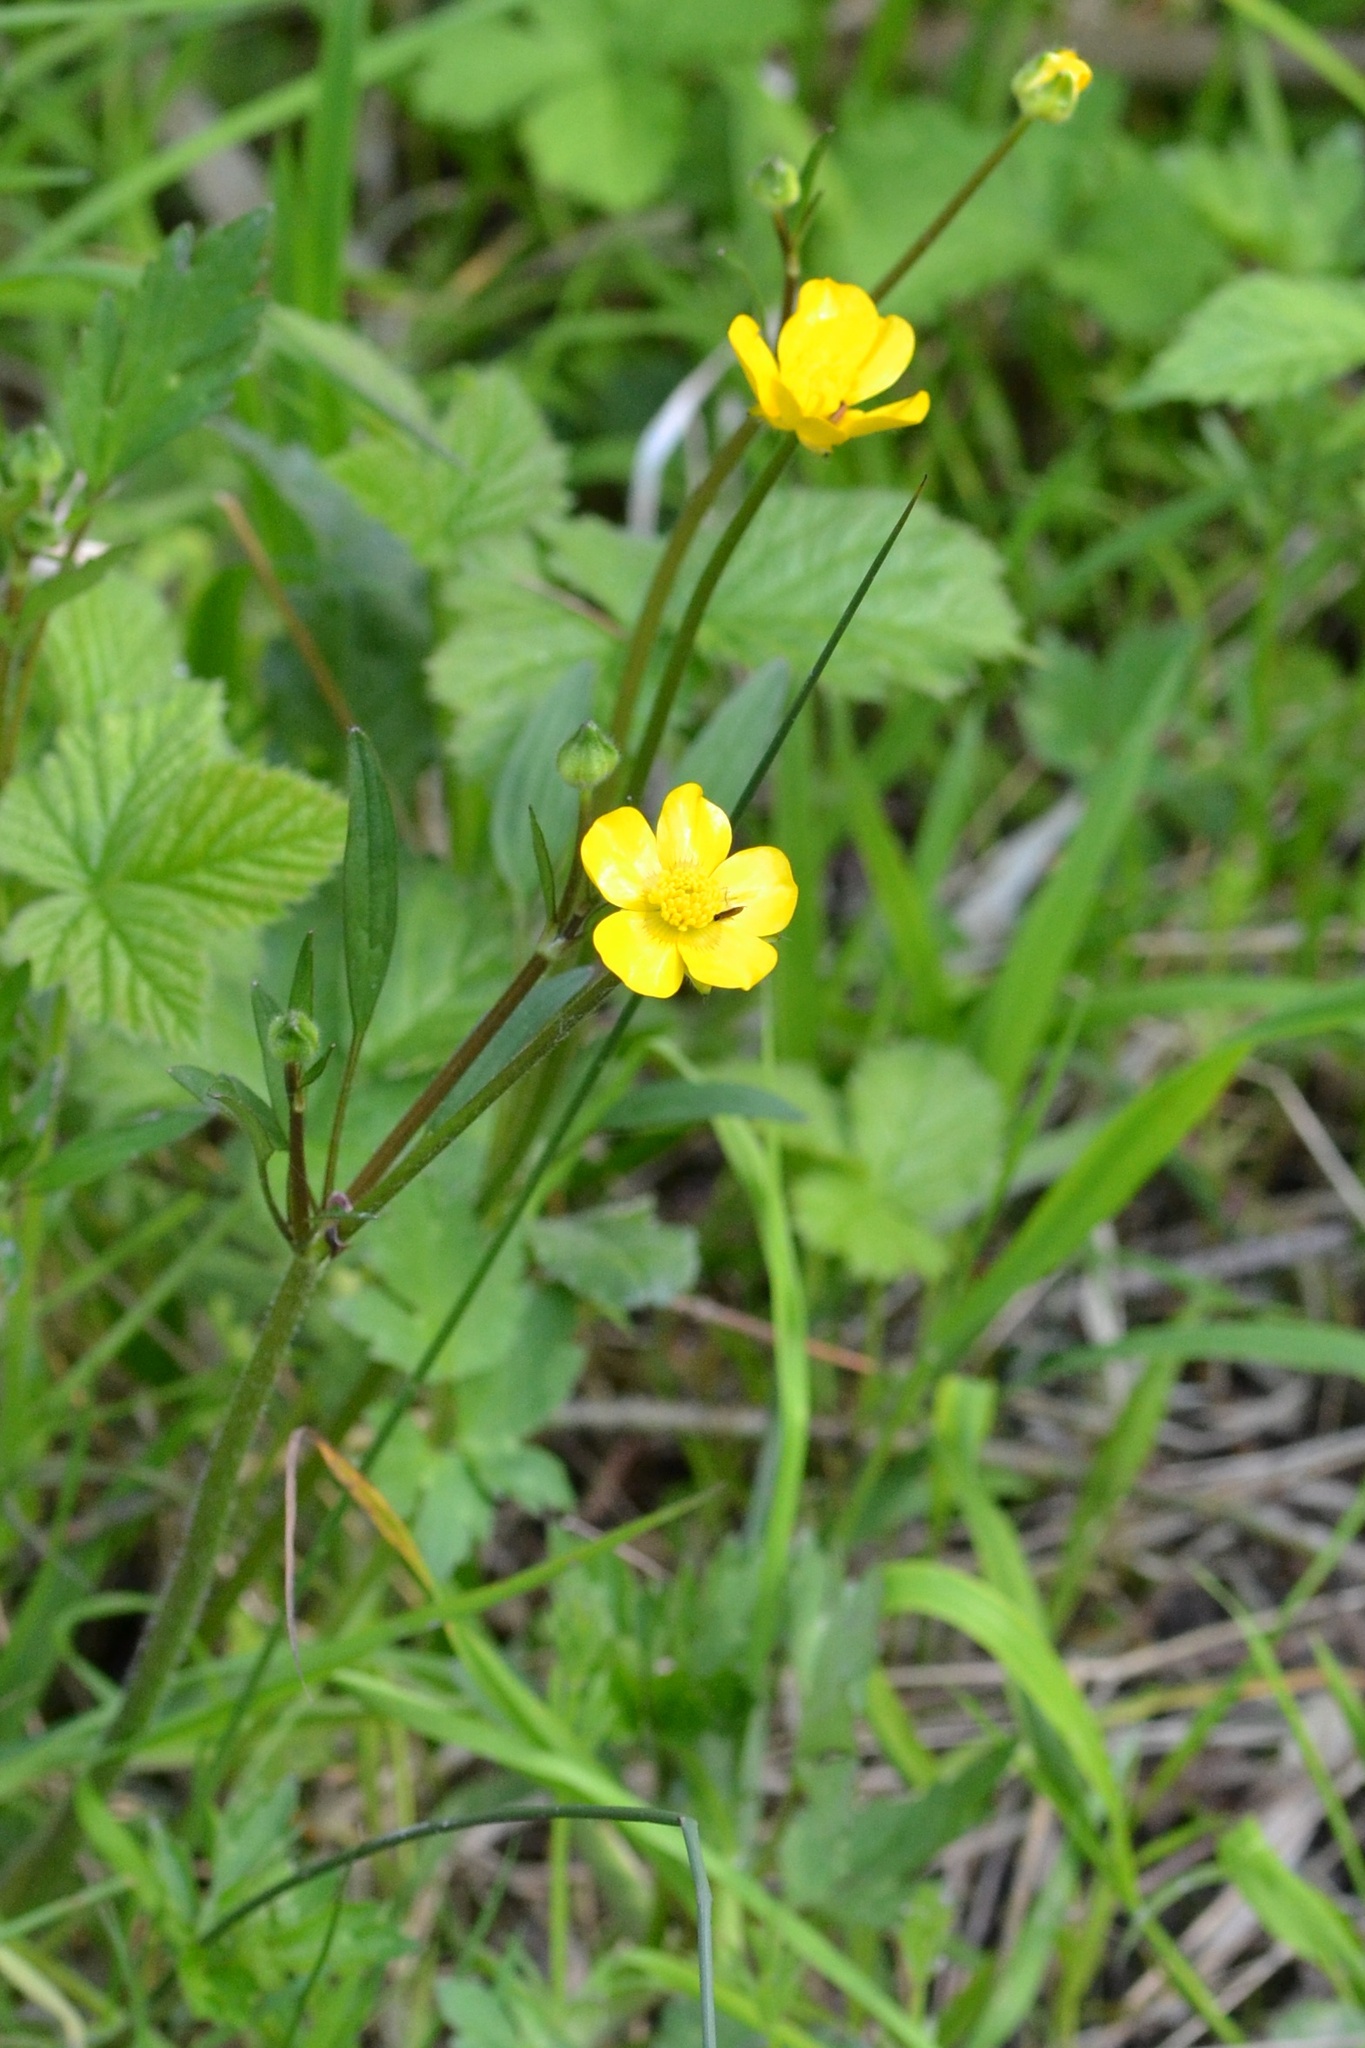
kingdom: Plantae
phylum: Tracheophyta
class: Magnoliopsida
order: Ranunculales
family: Ranunculaceae
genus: Ranunculus
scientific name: Ranunculus repens
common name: Creeping buttercup
